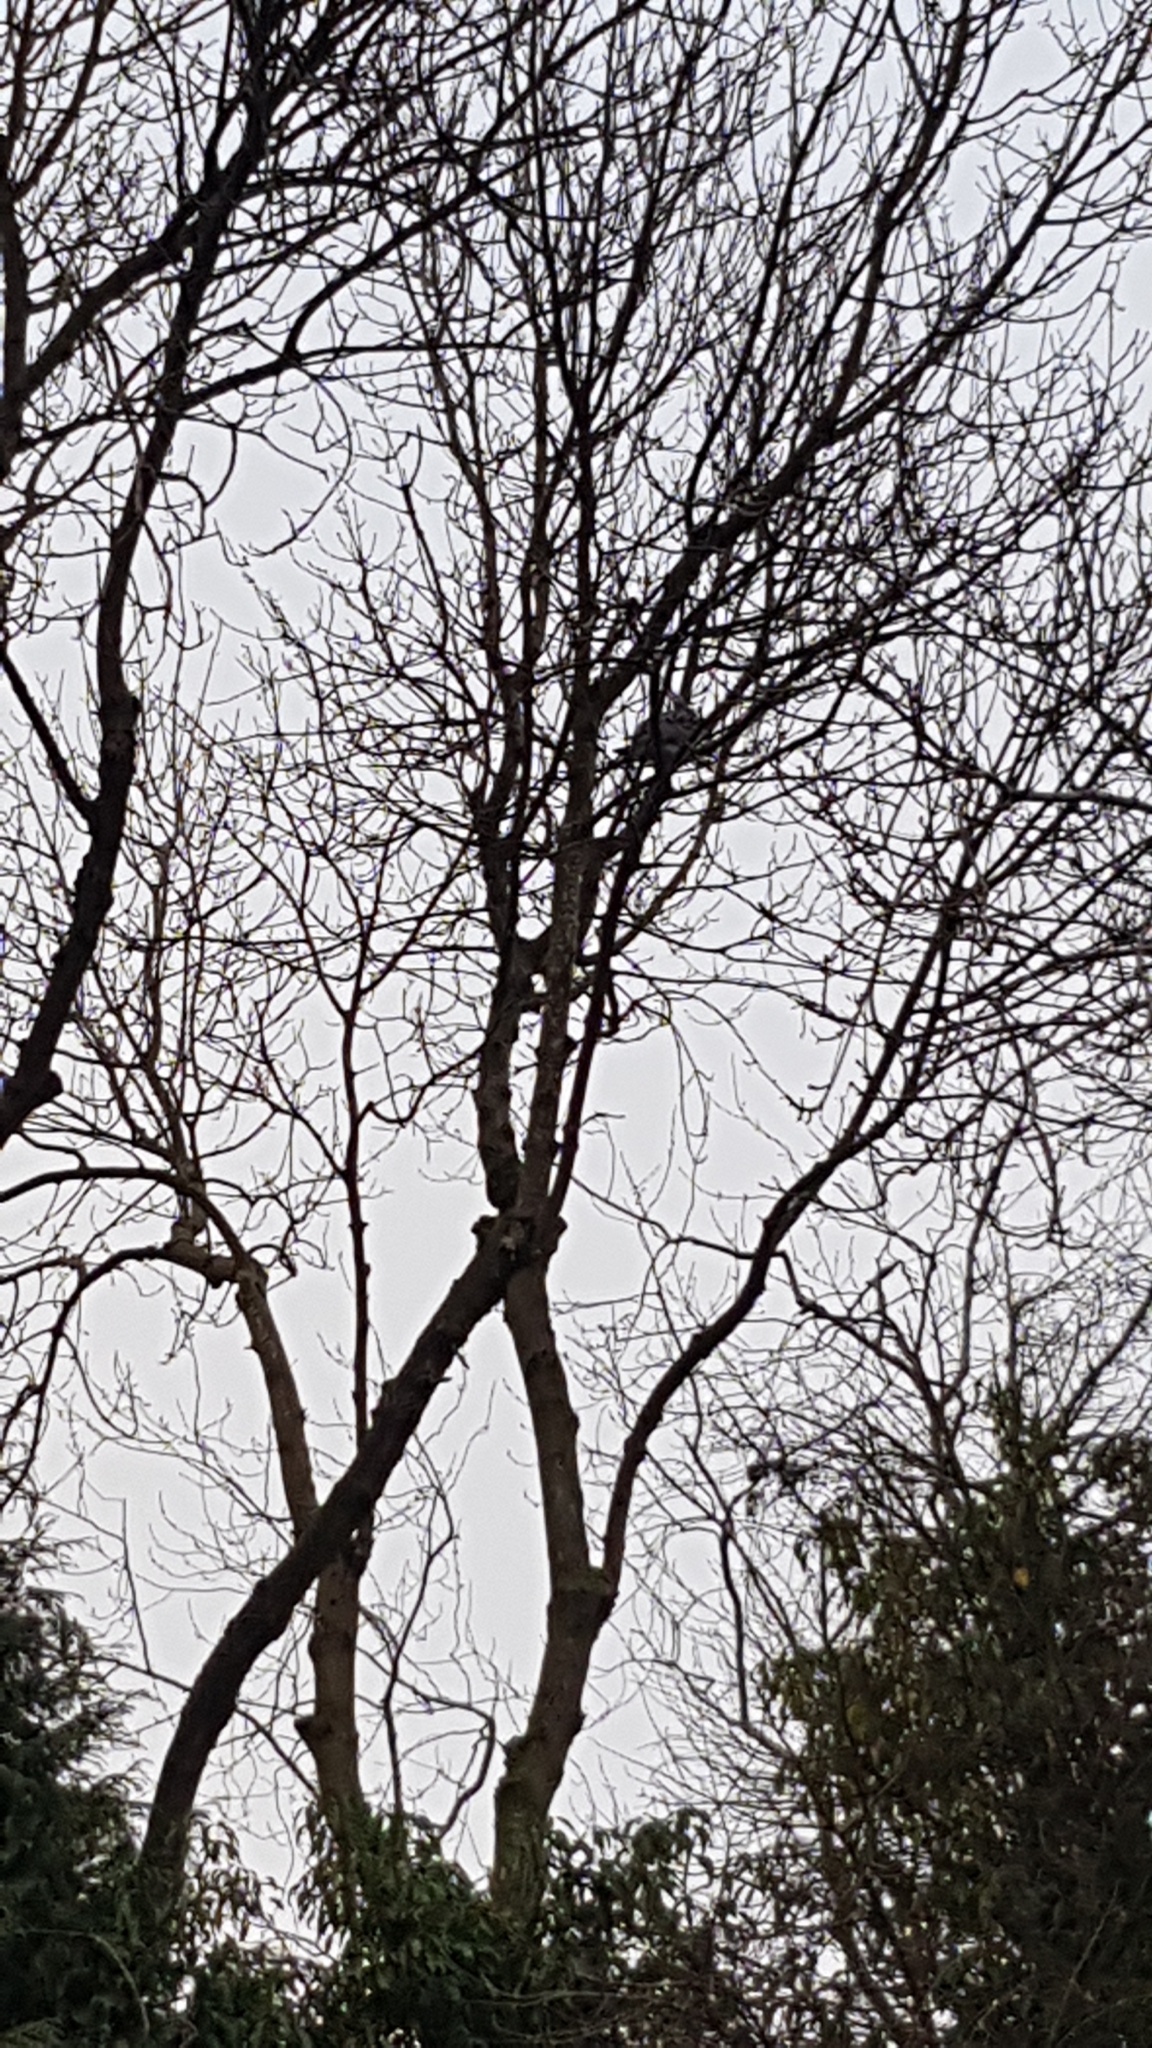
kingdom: Animalia
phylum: Chordata
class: Aves
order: Columbiformes
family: Columbidae
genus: Columba
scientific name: Columba palumbus
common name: Common wood pigeon
